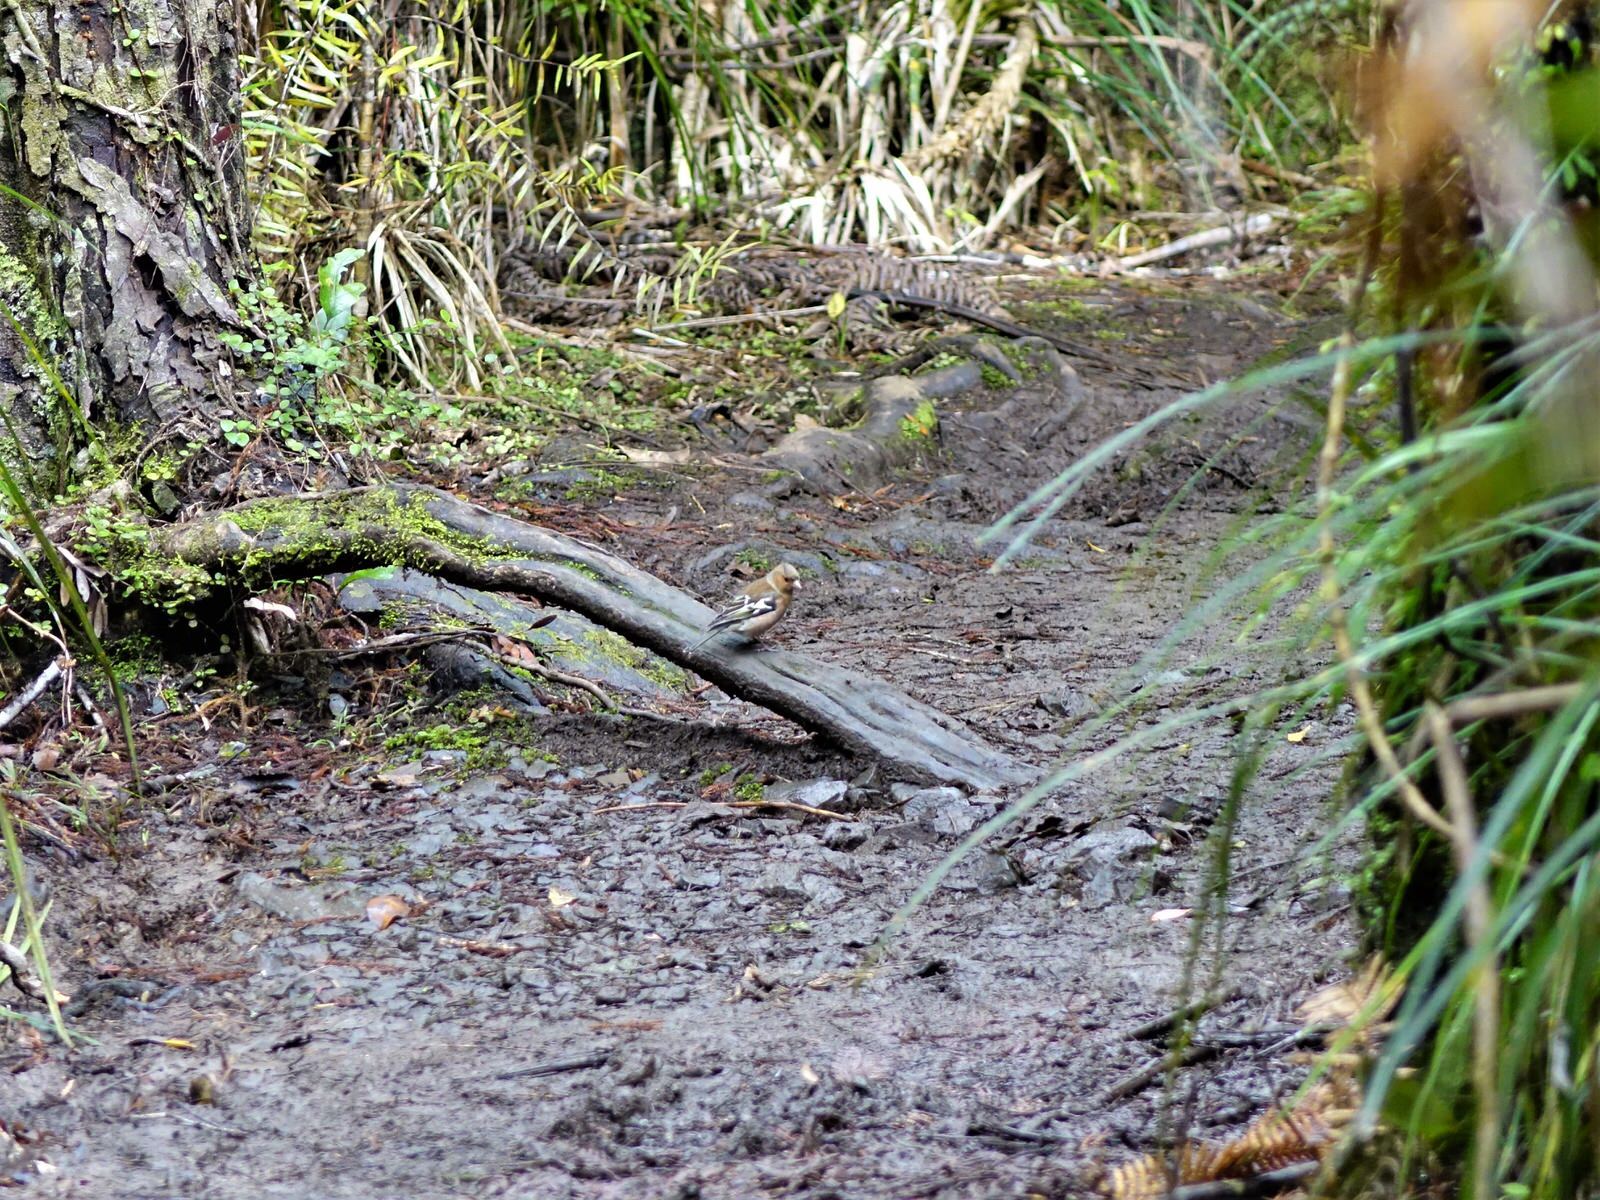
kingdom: Animalia
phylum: Chordata
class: Aves
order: Passeriformes
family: Fringillidae
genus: Fringilla
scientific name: Fringilla coelebs
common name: Common chaffinch
